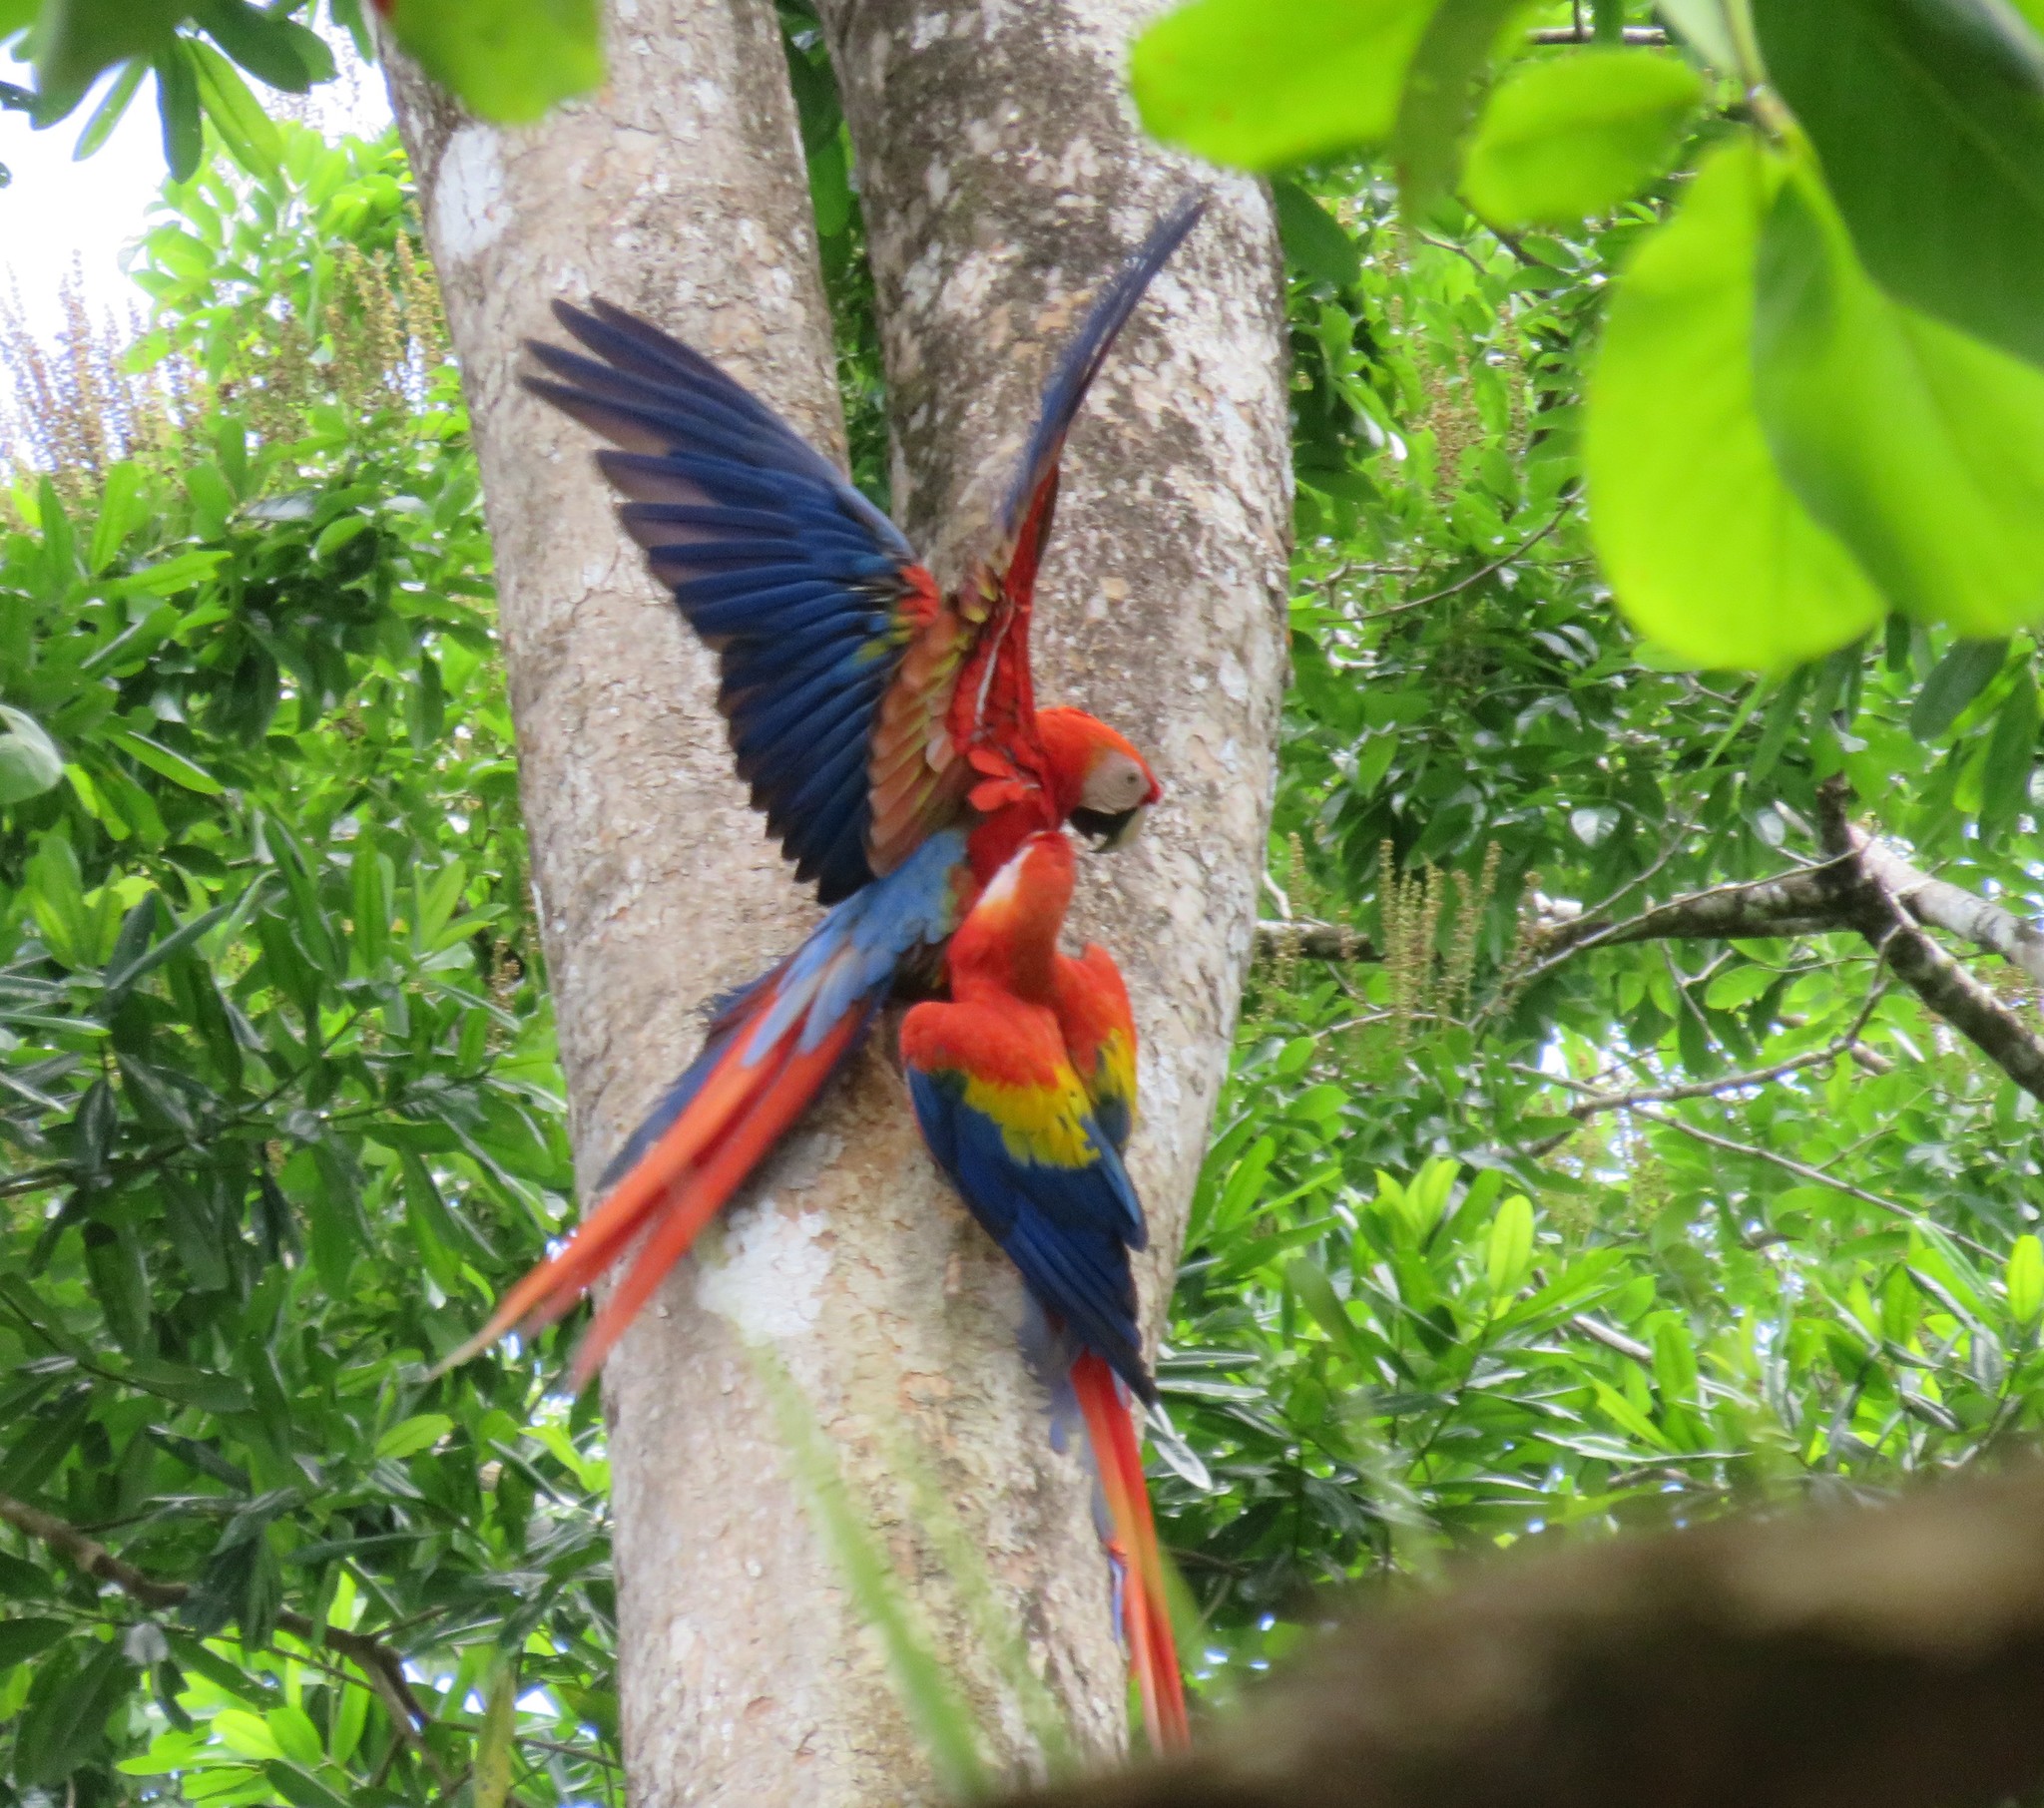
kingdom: Animalia
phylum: Chordata
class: Aves
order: Psittaciformes
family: Psittacidae
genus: Ara
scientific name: Ara macao
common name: Scarlet macaw
